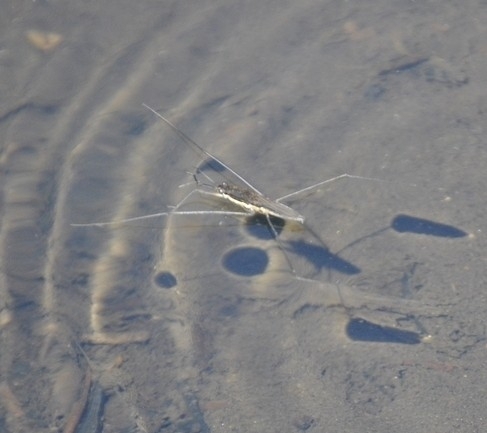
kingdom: Animalia
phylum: Arthropoda
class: Insecta
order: Hemiptera
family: Gerridae
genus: Aquarius
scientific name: Aquarius conformis
